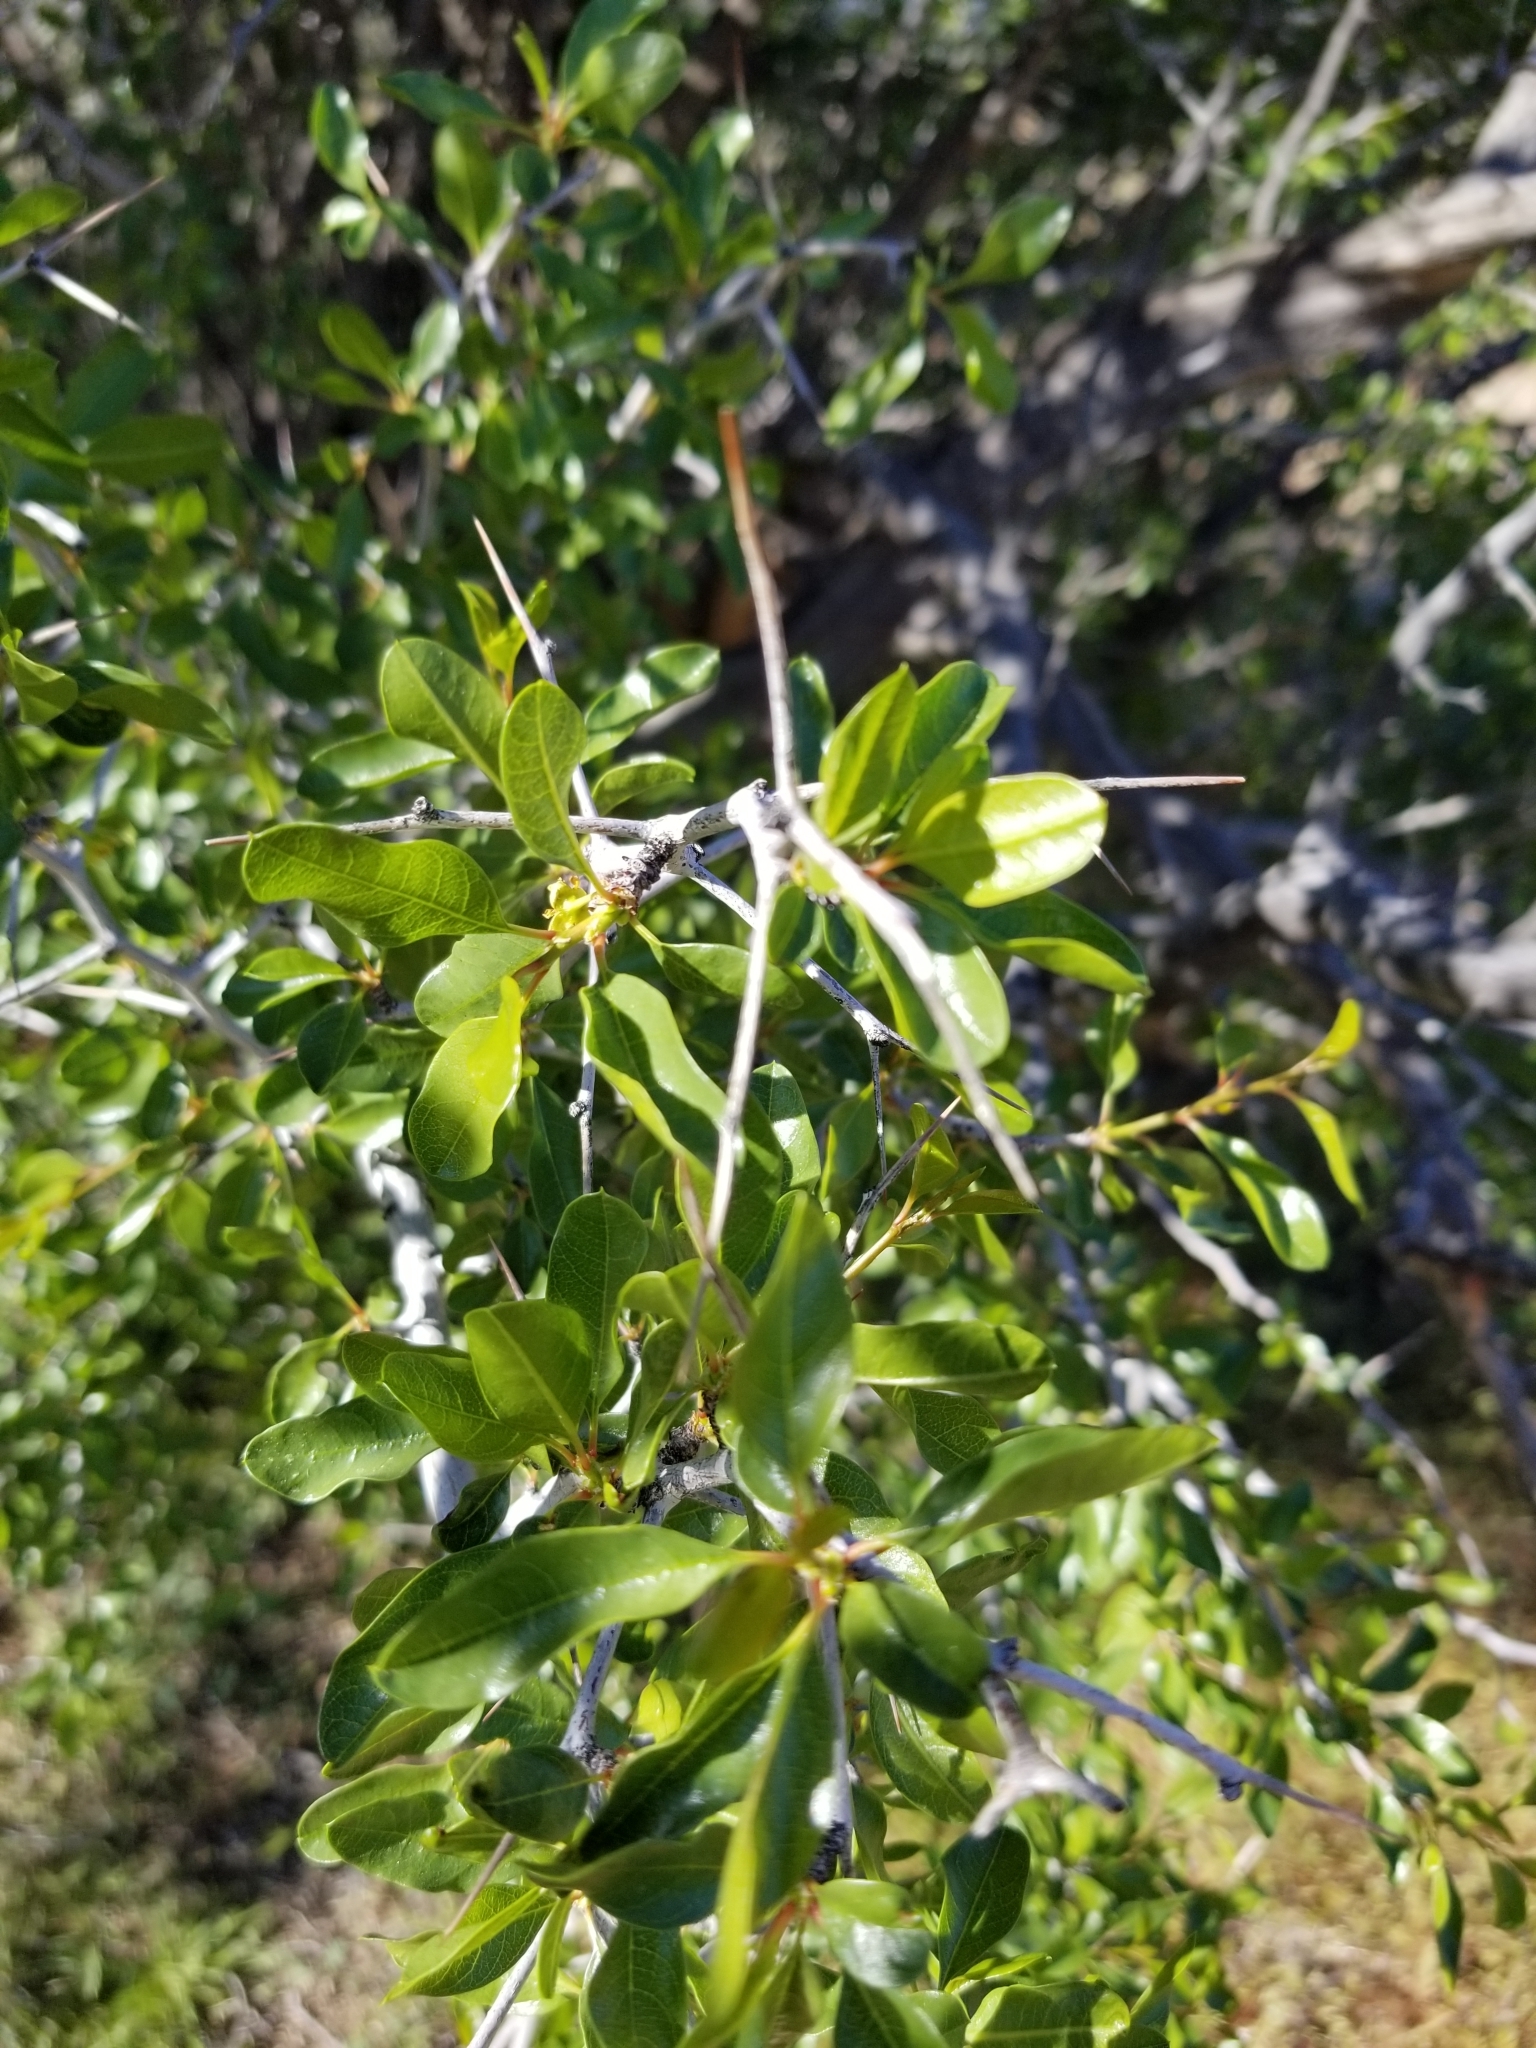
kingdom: Plantae
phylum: Tracheophyta
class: Magnoliopsida
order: Rosales
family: Rhamnaceae
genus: Pseudoziziphus
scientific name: Pseudoziziphus parryi
